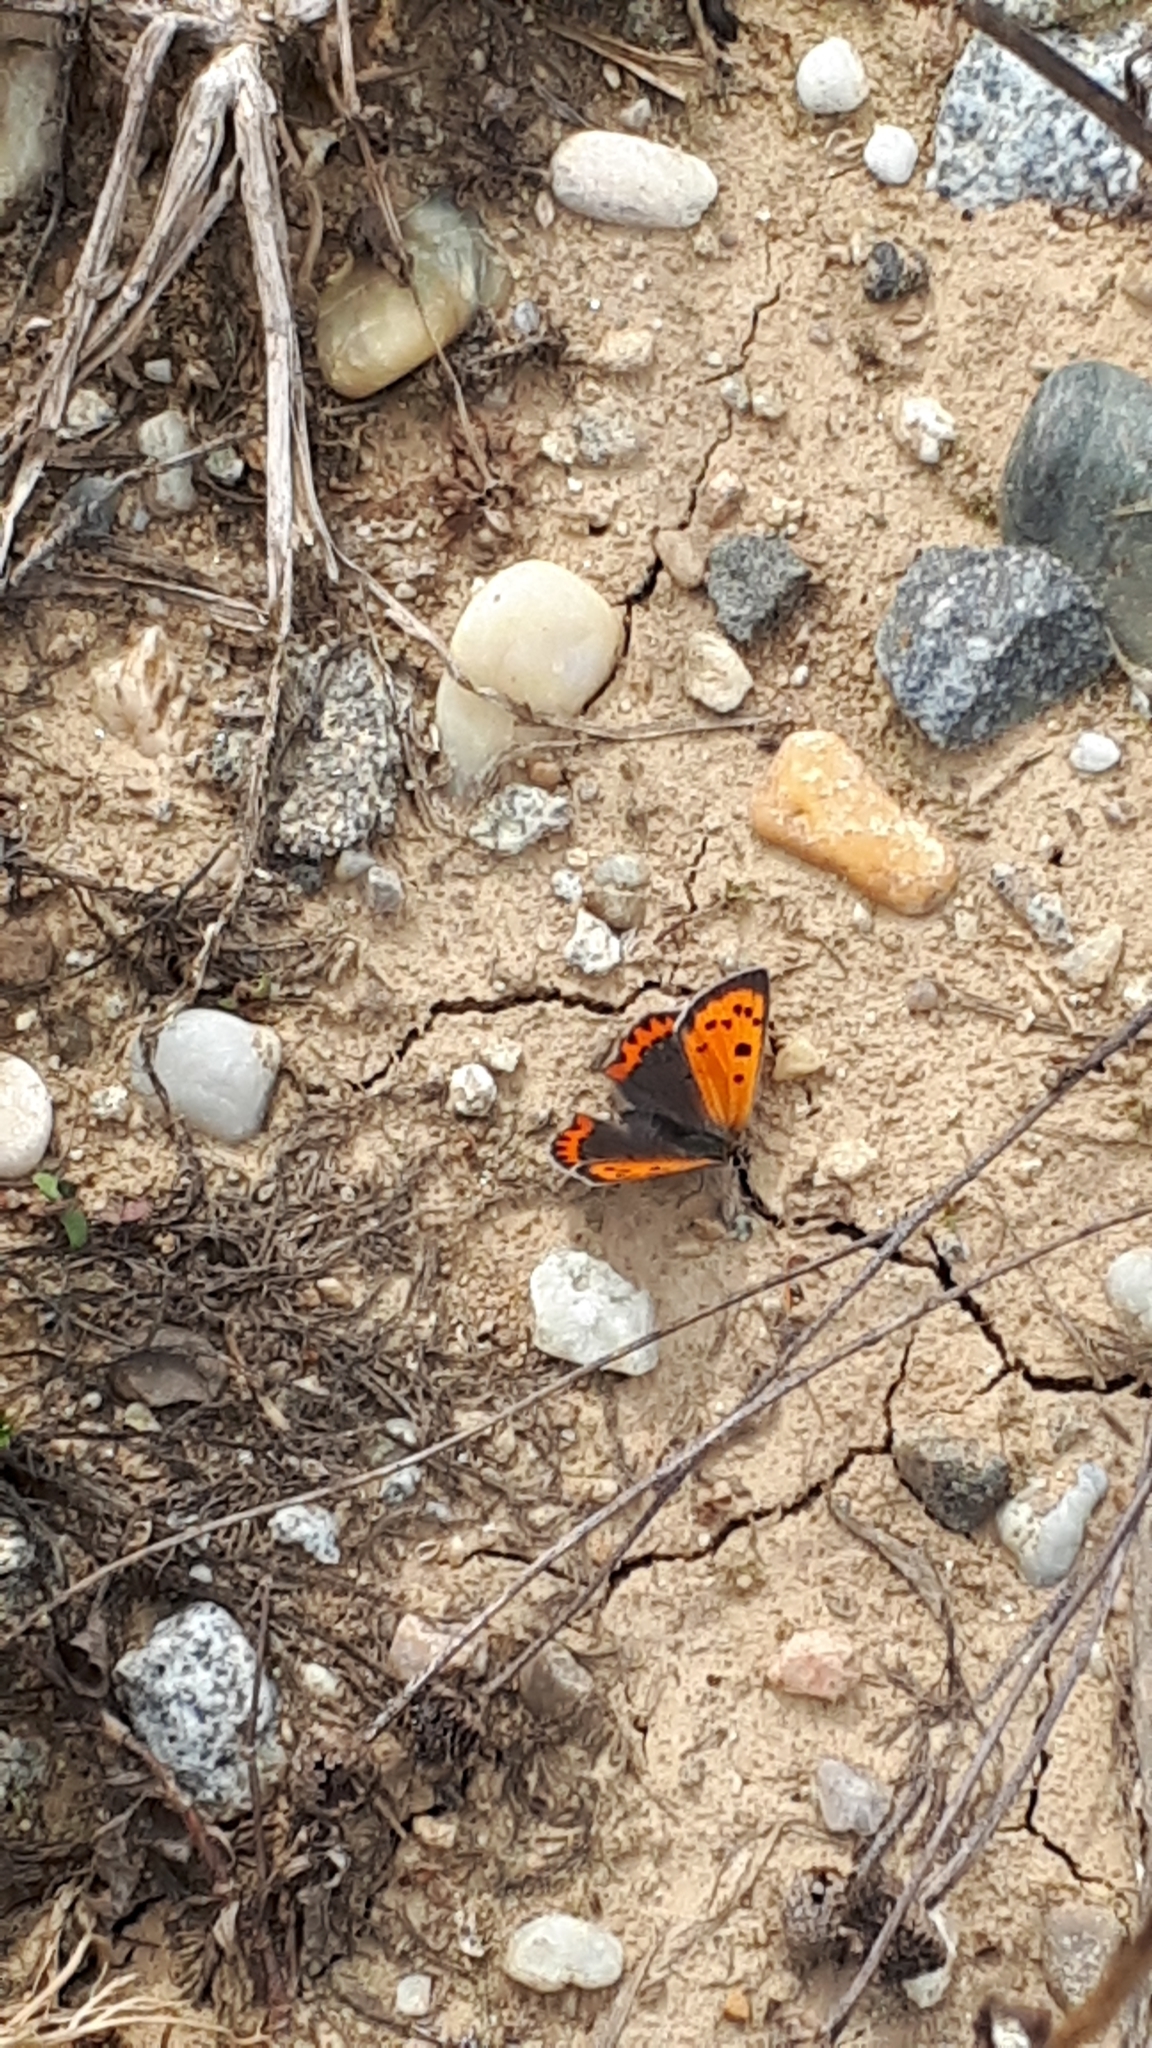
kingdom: Animalia
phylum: Arthropoda
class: Insecta
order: Lepidoptera
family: Lycaenidae
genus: Lycaena
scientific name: Lycaena phlaeas
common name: Small copper
